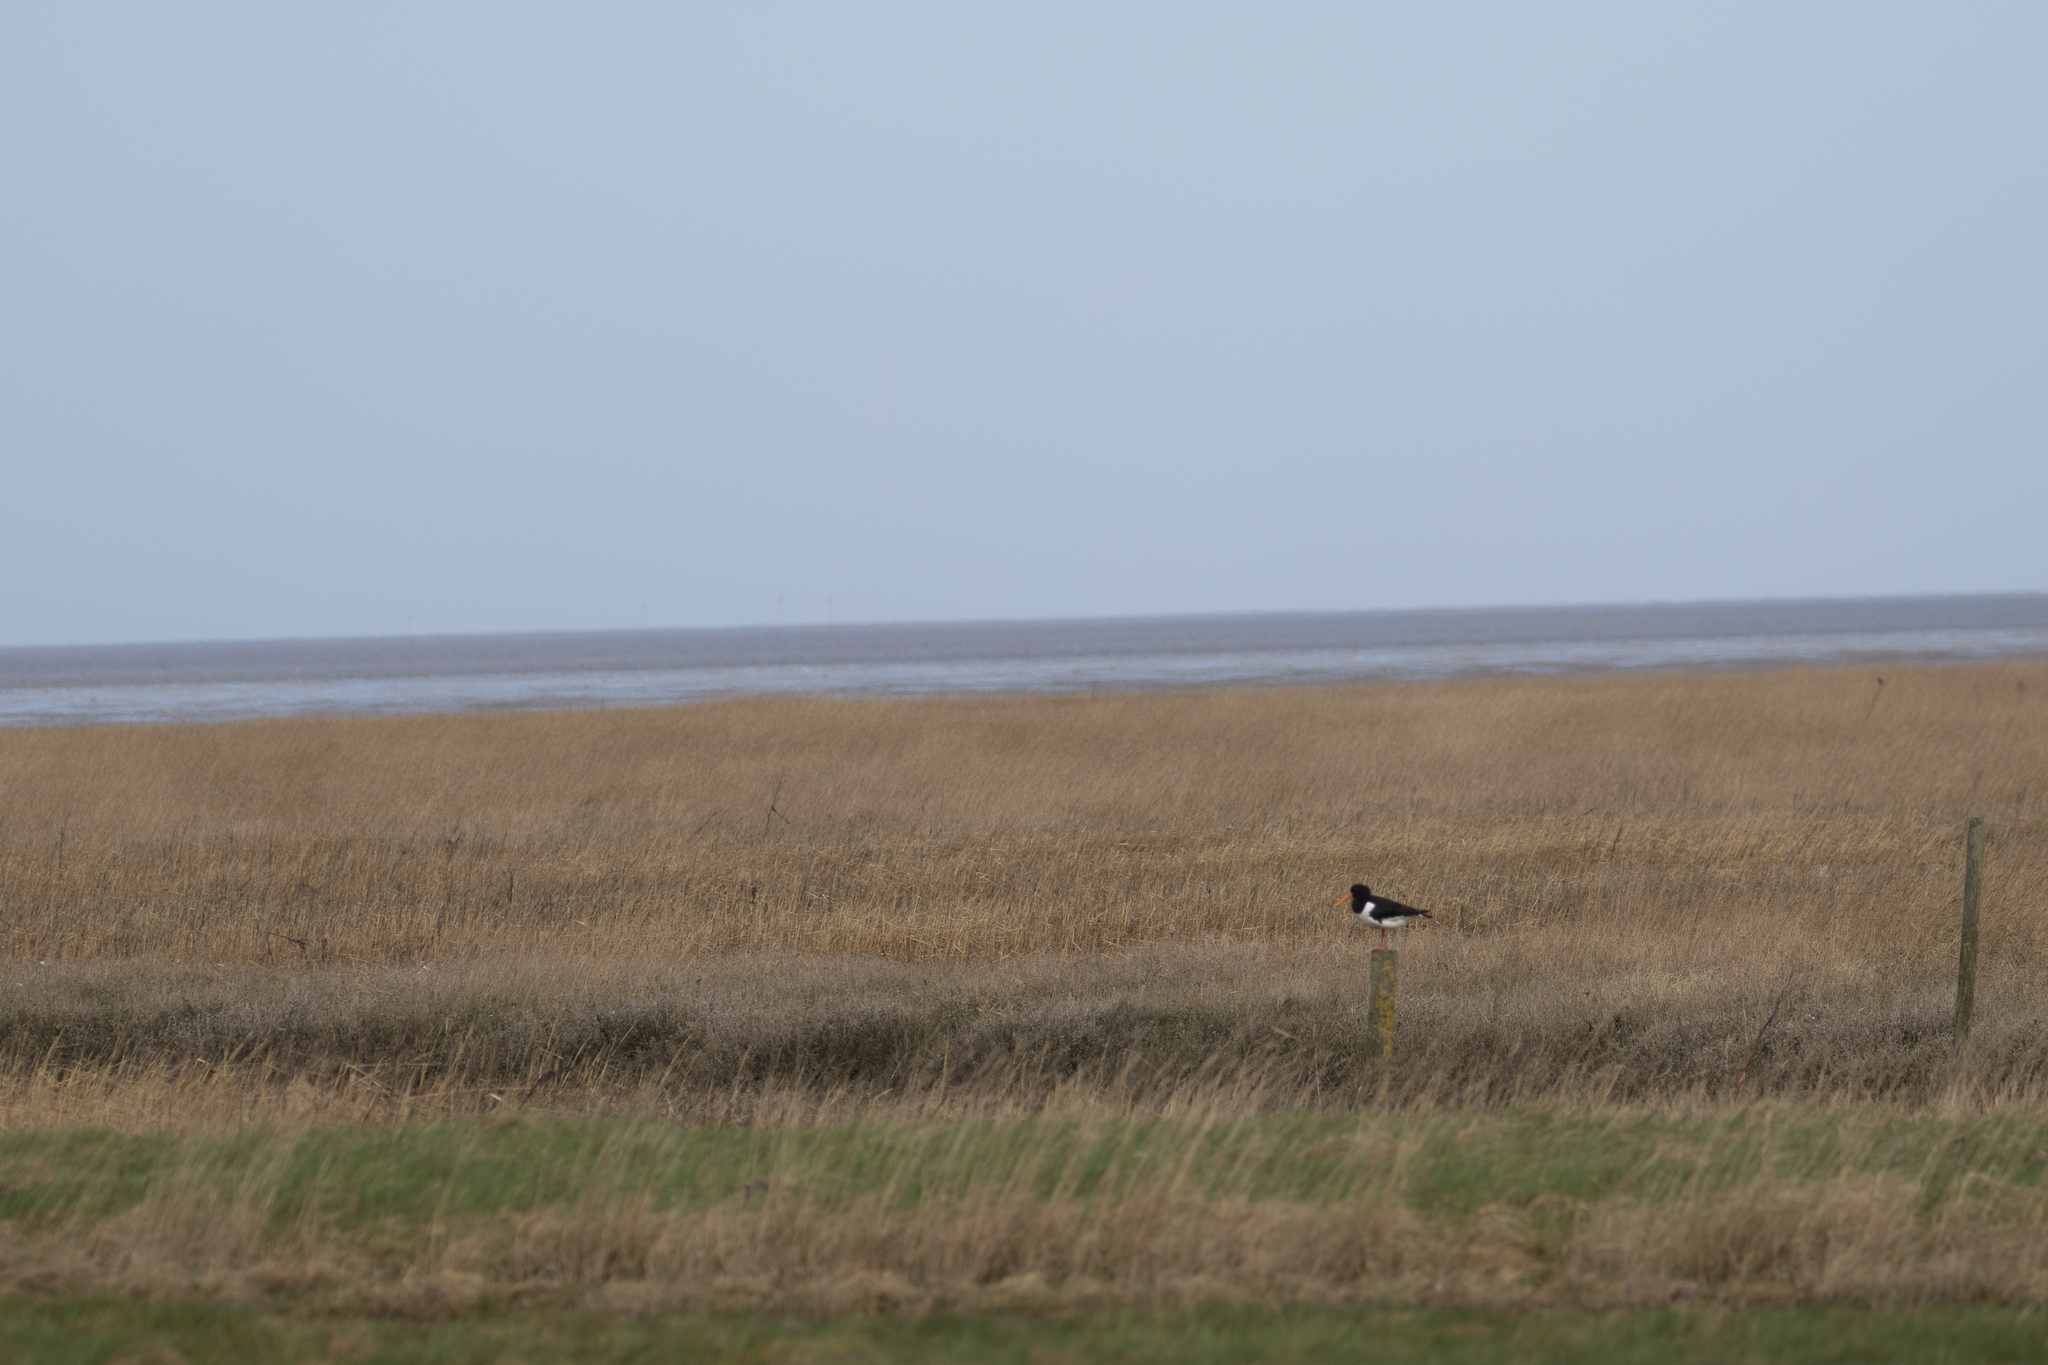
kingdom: Animalia
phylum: Chordata
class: Aves
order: Charadriiformes
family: Haematopodidae
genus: Haematopus
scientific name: Haematopus ostralegus
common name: Eurasian oystercatcher
